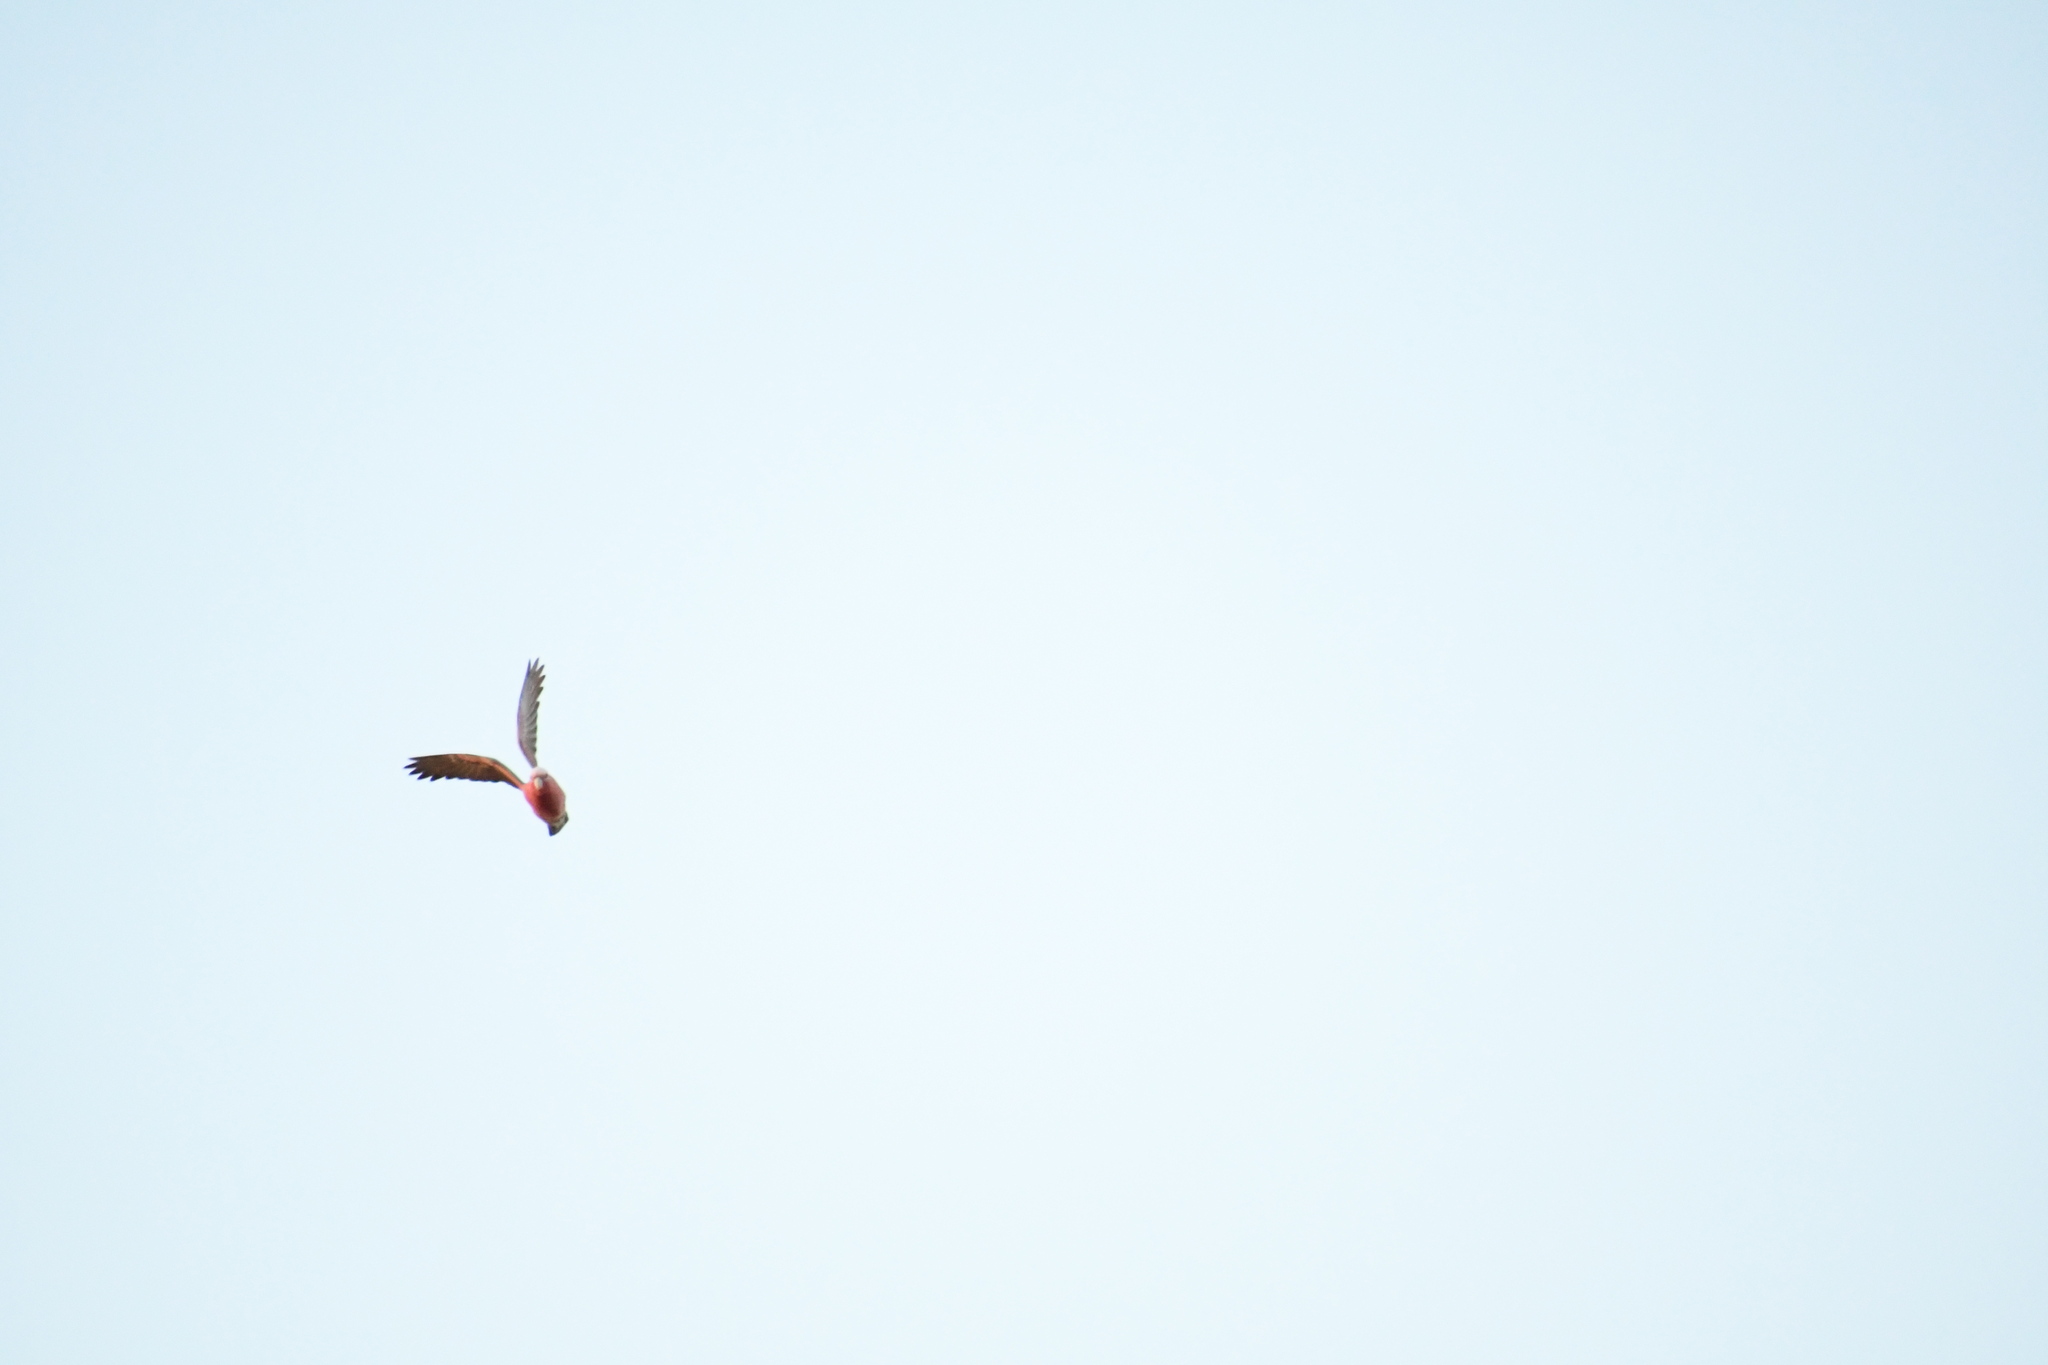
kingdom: Animalia
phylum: Chordata
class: Aves
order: Psittaciformes
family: Psittacidae
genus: Eolophus
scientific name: Eolophus roseicapilla
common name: Galah
